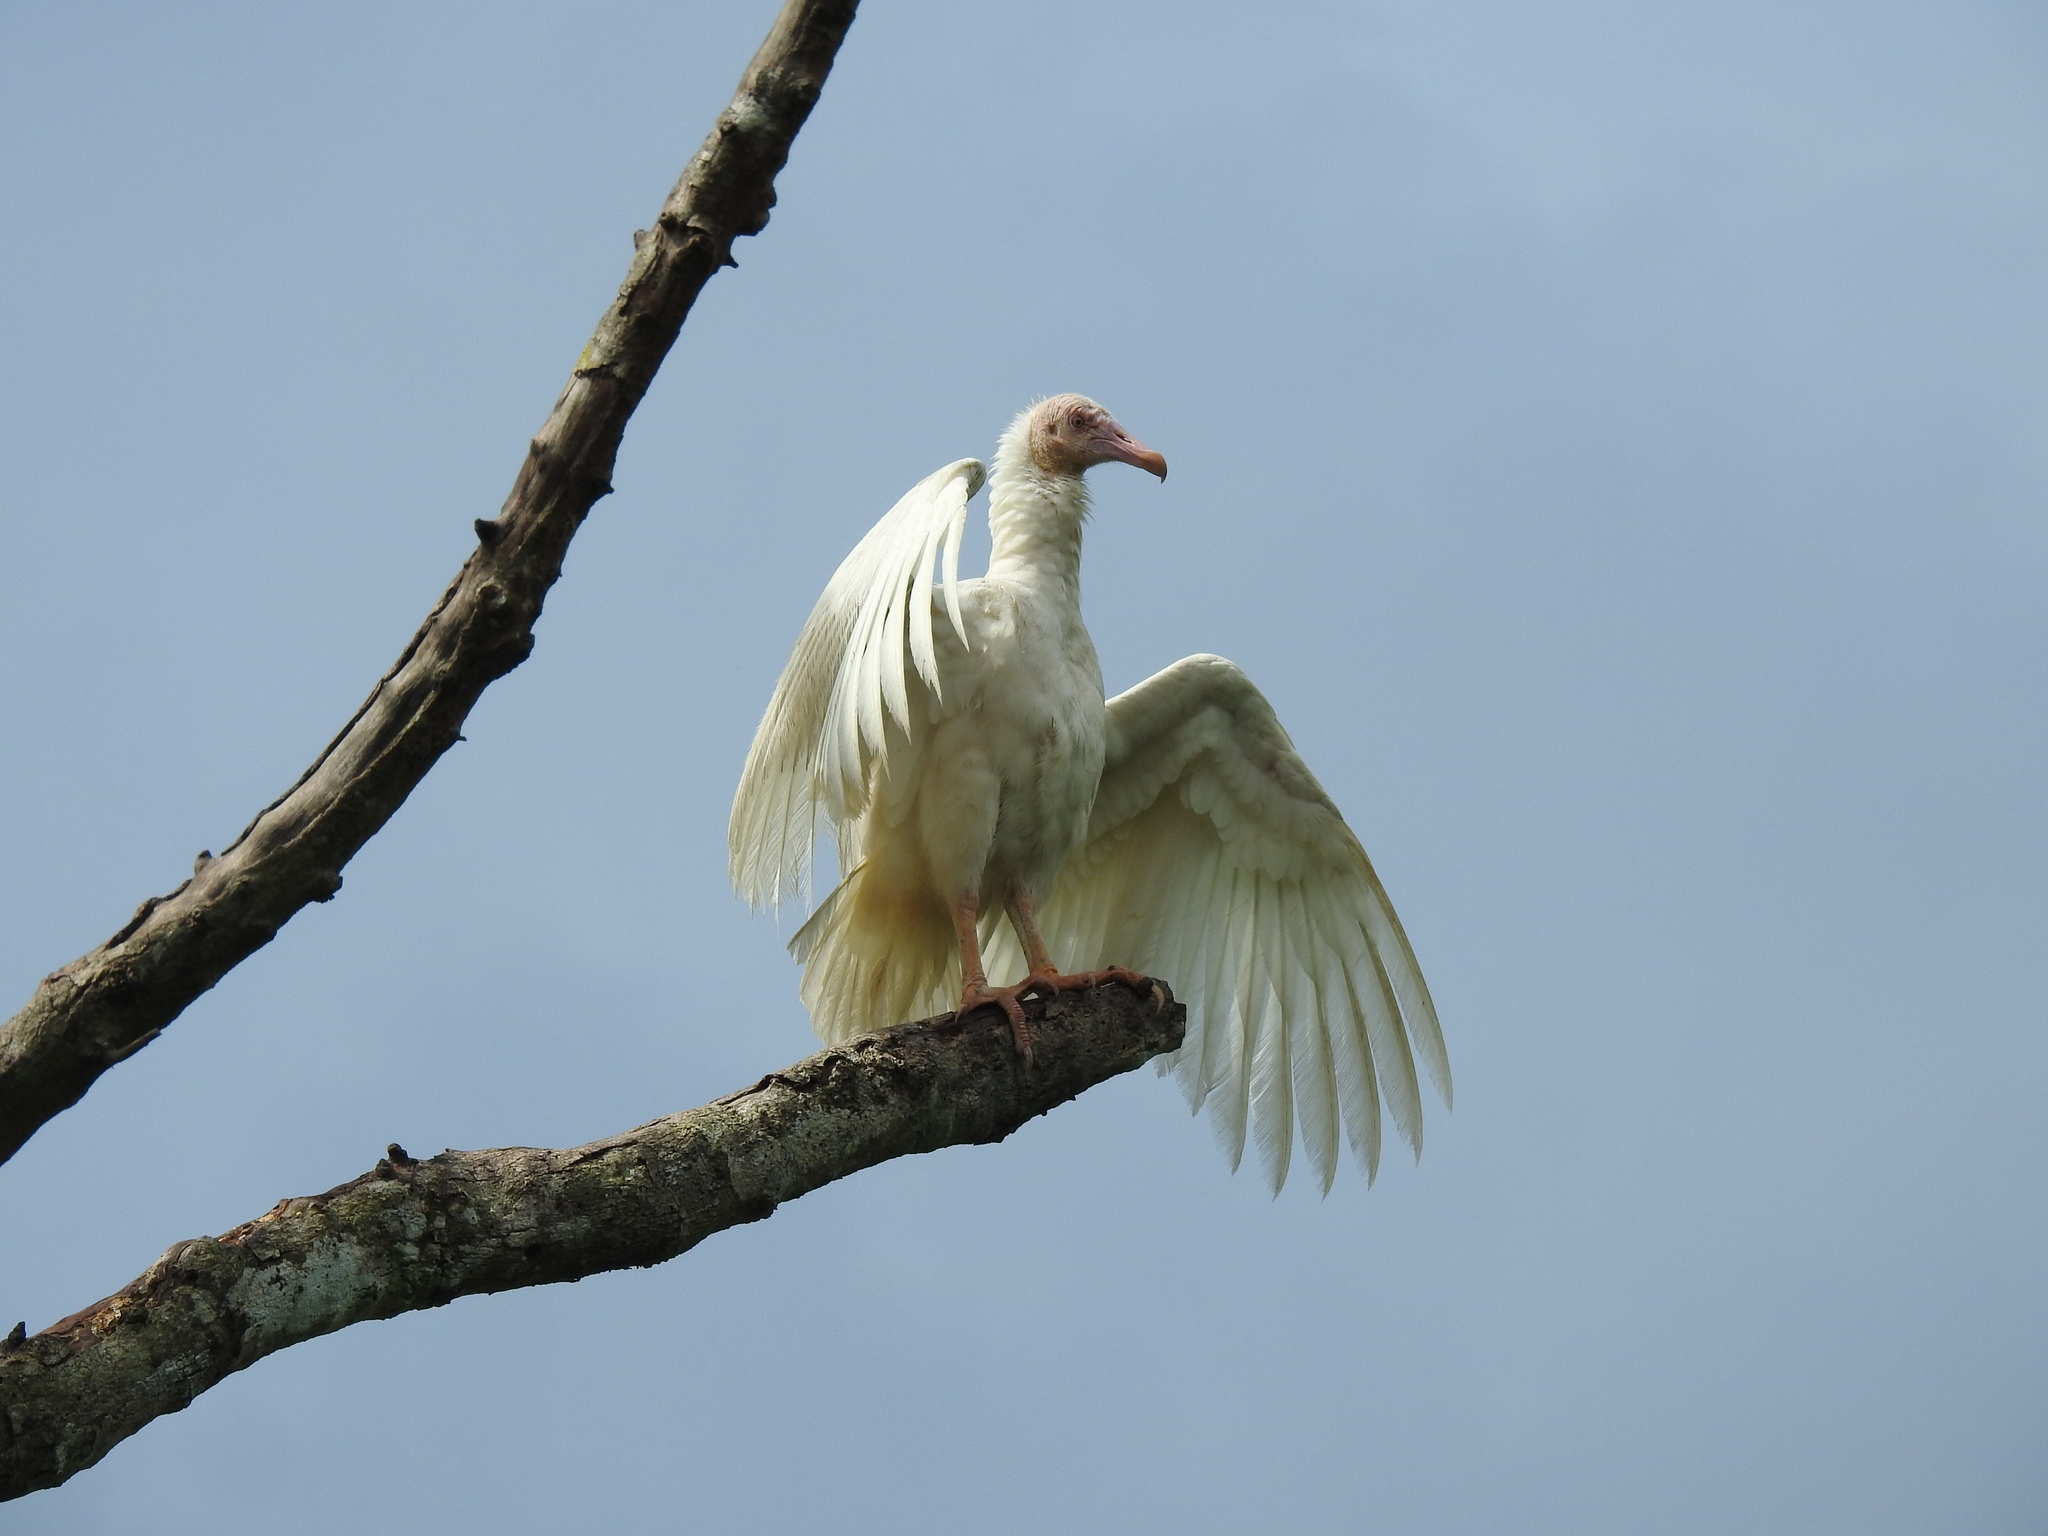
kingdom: Animalia
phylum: Chordata
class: Aves
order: Accipitriformes
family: Cathartidae
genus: Coragyps
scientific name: Coragyps atratus
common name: Black vulture
